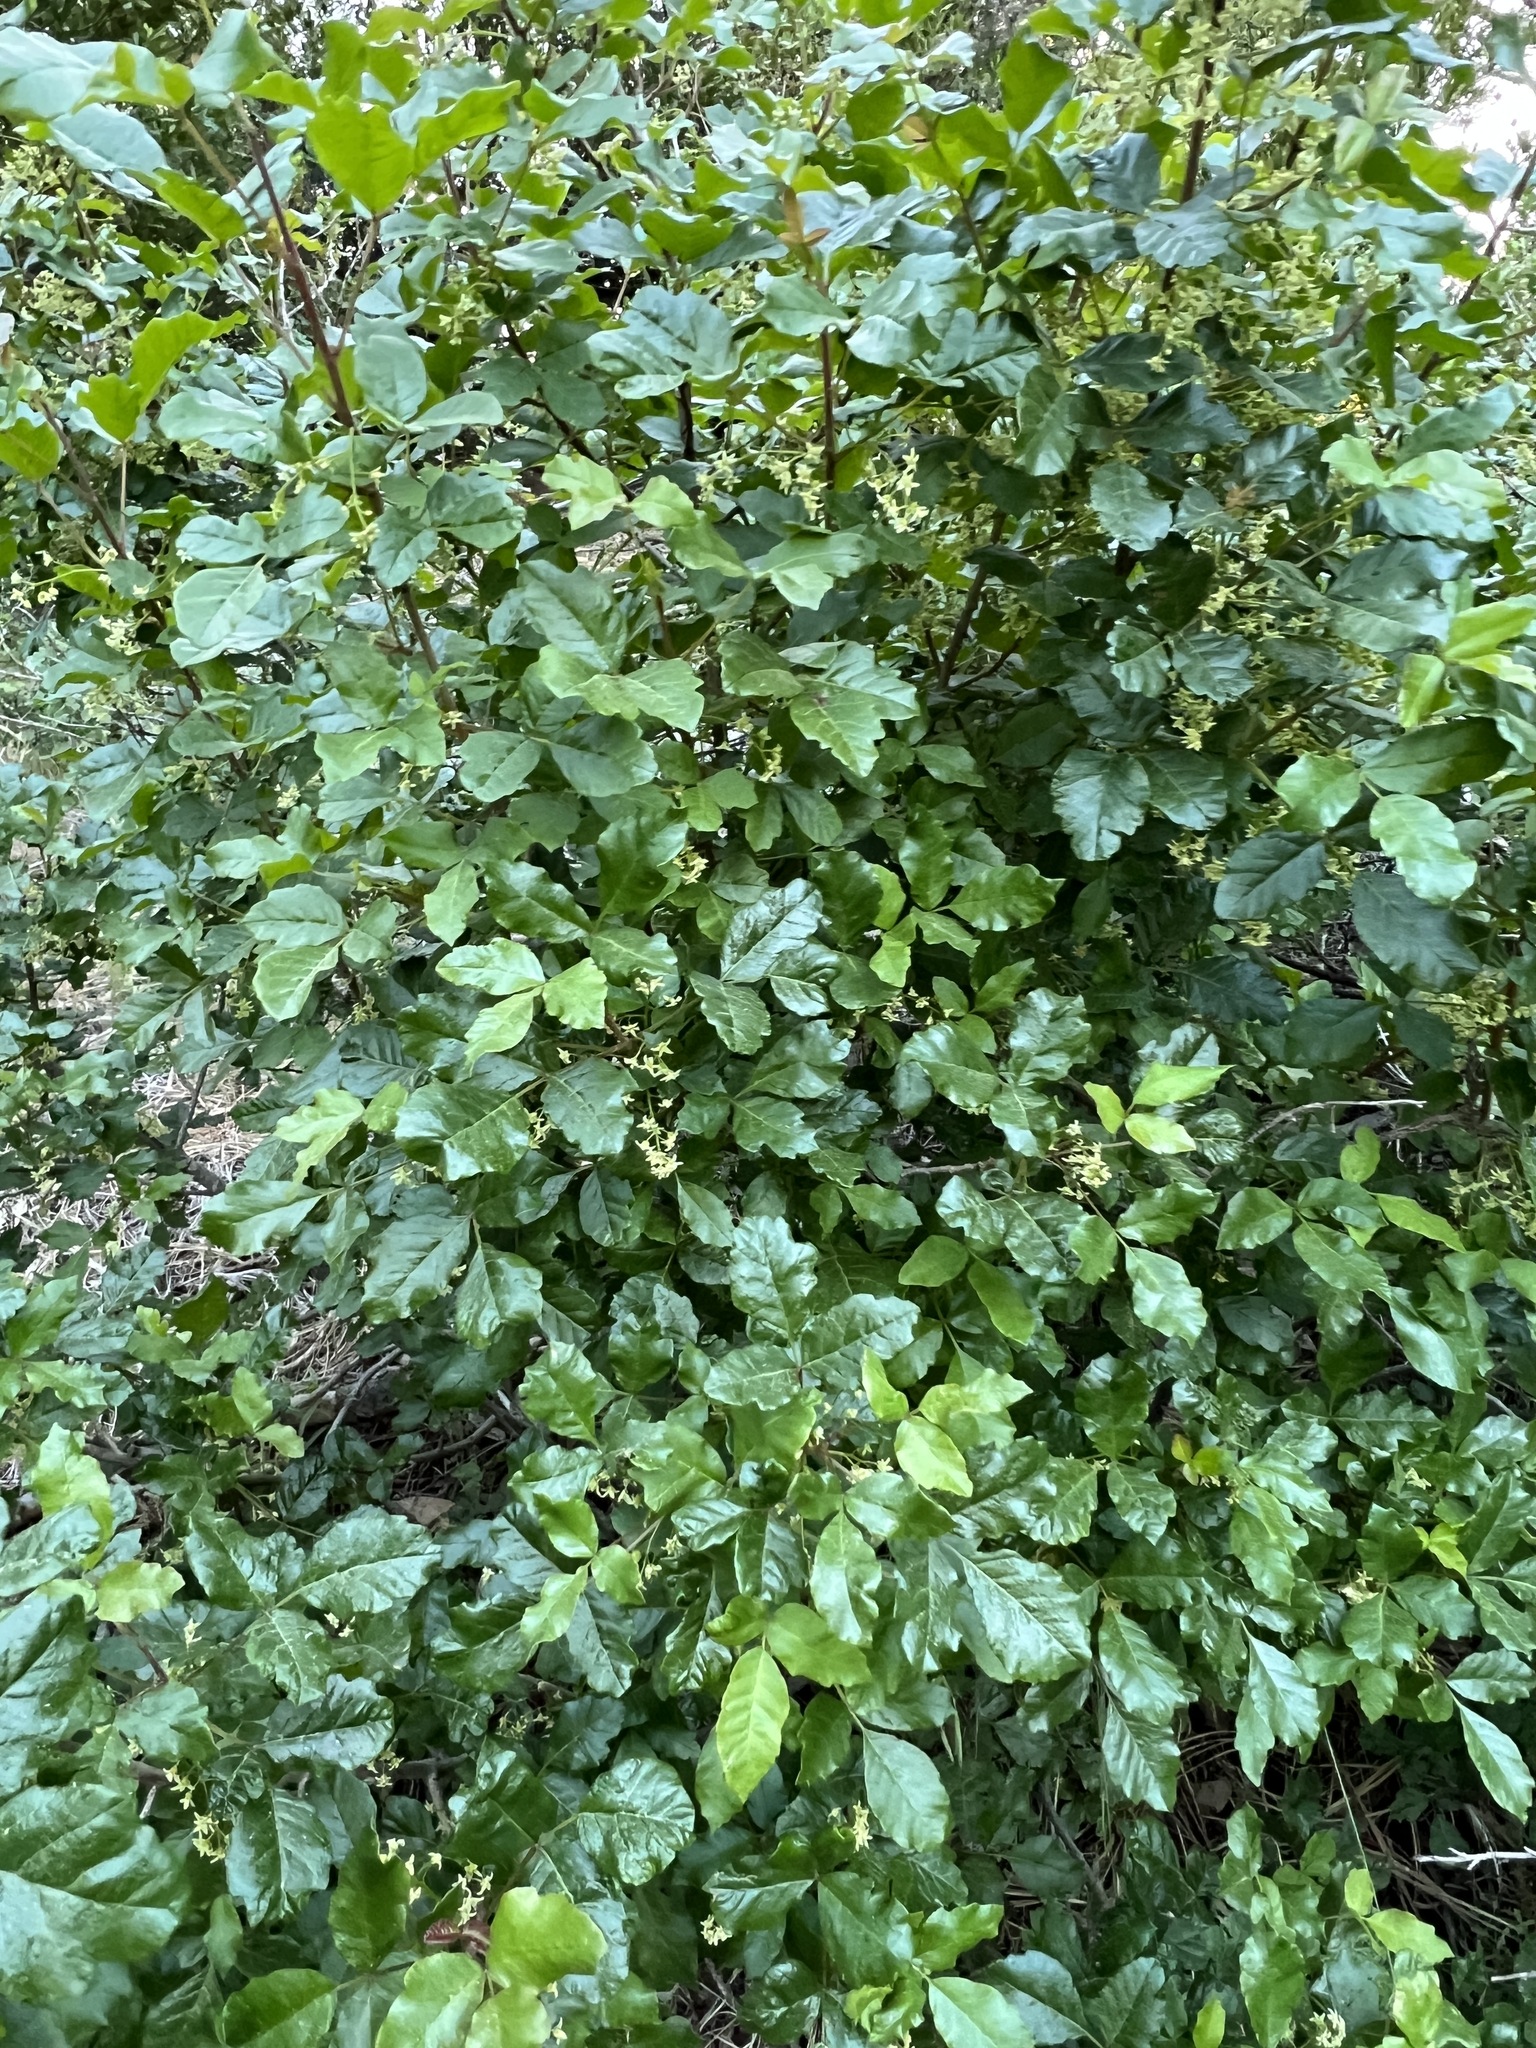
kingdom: Plantae
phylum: Tracheophyta
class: Magnoliopsida
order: Sapindales
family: Anacardiaceae
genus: Toxicodendron
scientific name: Toxicodendron diversilobum
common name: Pacific poison-oak
